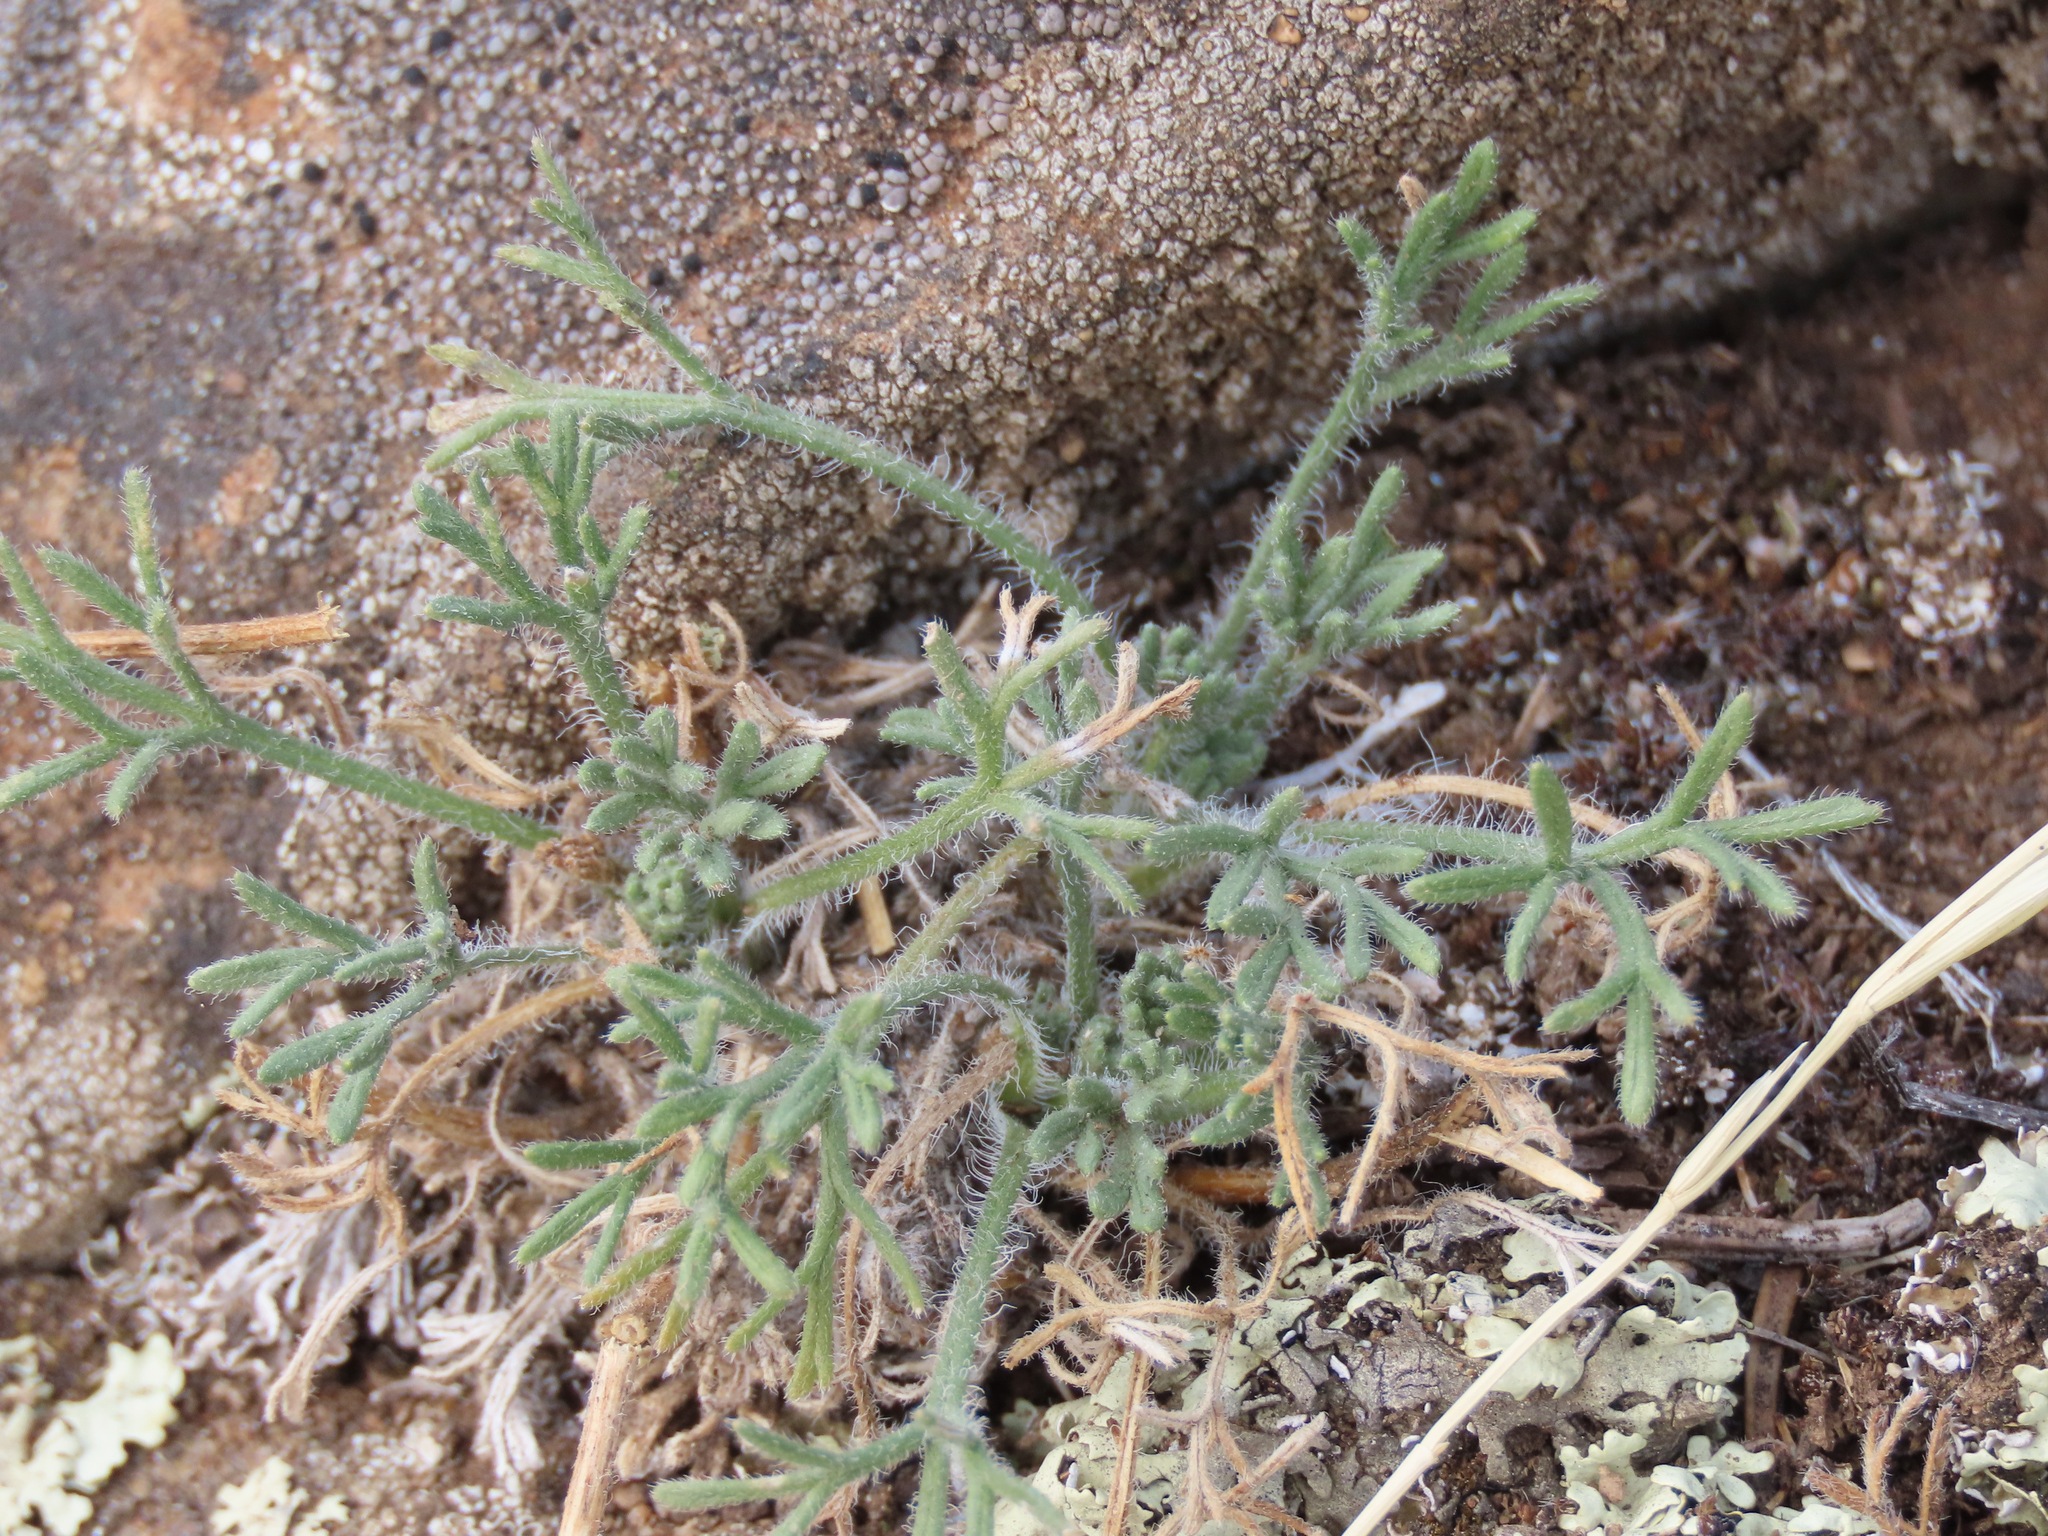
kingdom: Plantae
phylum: Tracheophyta
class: Magnoliopsida
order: Asterales
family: Asteraceae
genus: Erigeron
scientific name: Erigeron compositus
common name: Dwarf mountain fleabane
